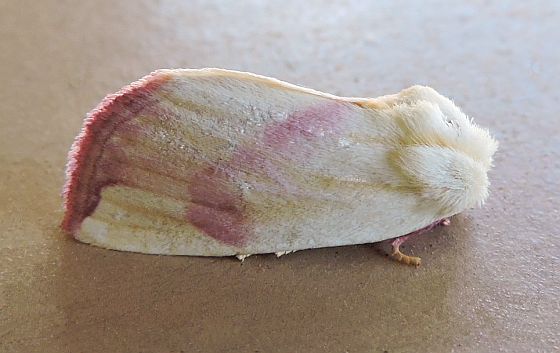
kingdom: Animalia
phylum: Arthropoda
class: Insecta
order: Lepidoptera
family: Noctuidae
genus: Thurberiphaga
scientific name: Thurberiphaga diffusa
